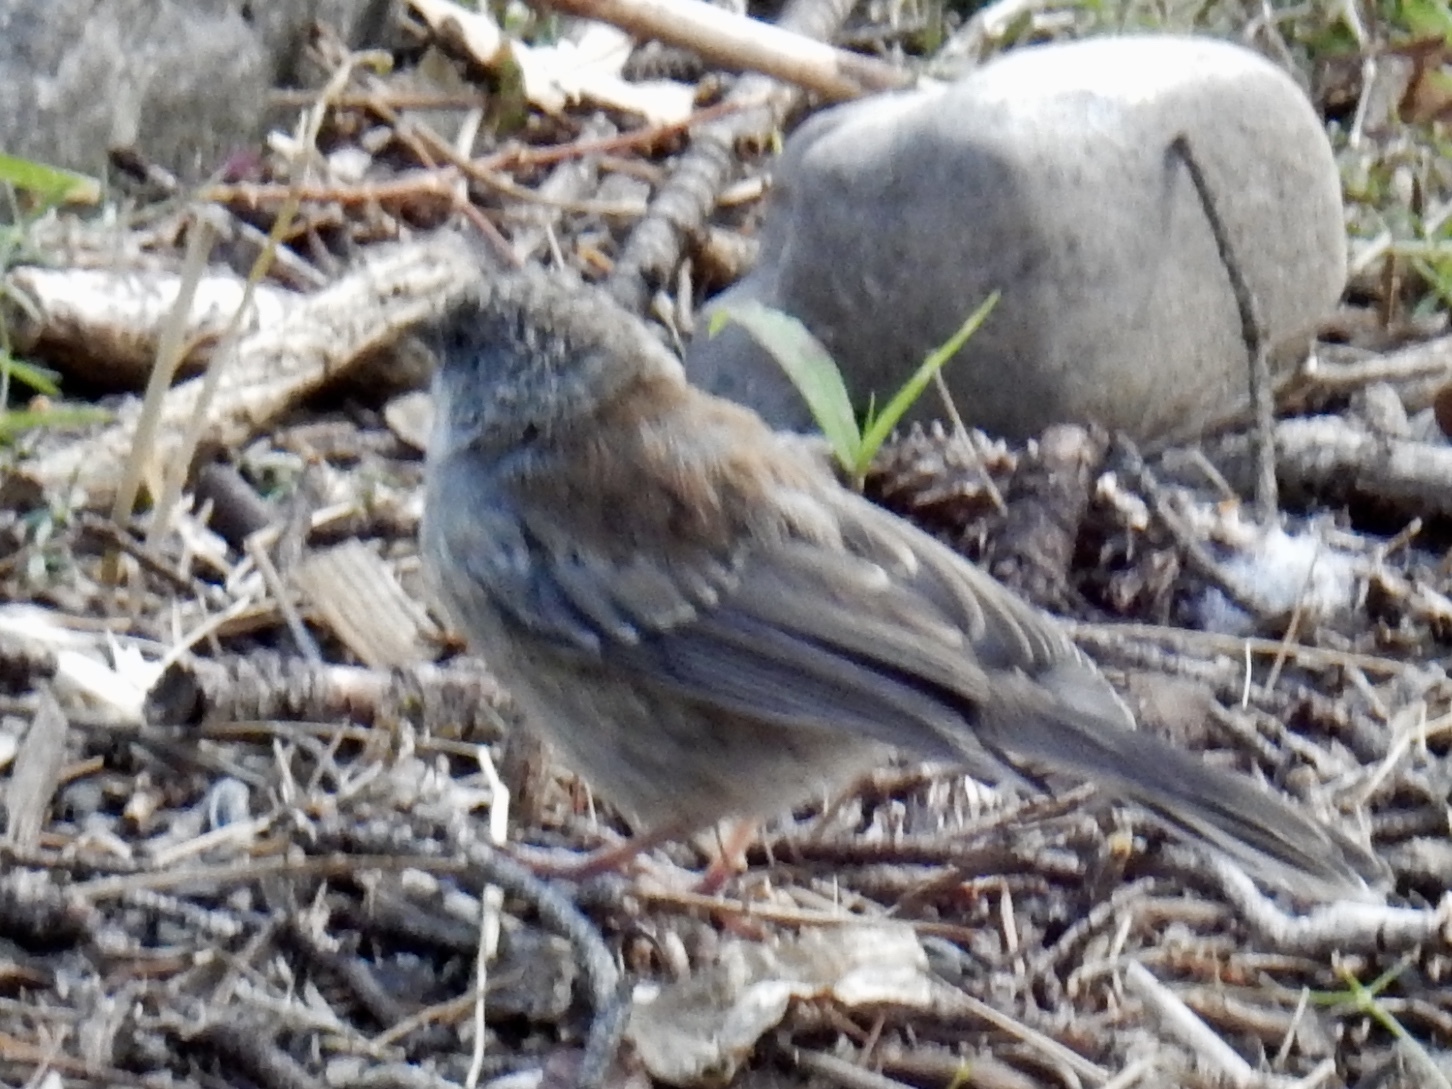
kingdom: Animalia
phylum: Chordata
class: Aves
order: Passeriformes
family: Passerellidae
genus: Junco
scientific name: Junco hyemalis
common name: Dark-eyed junco
